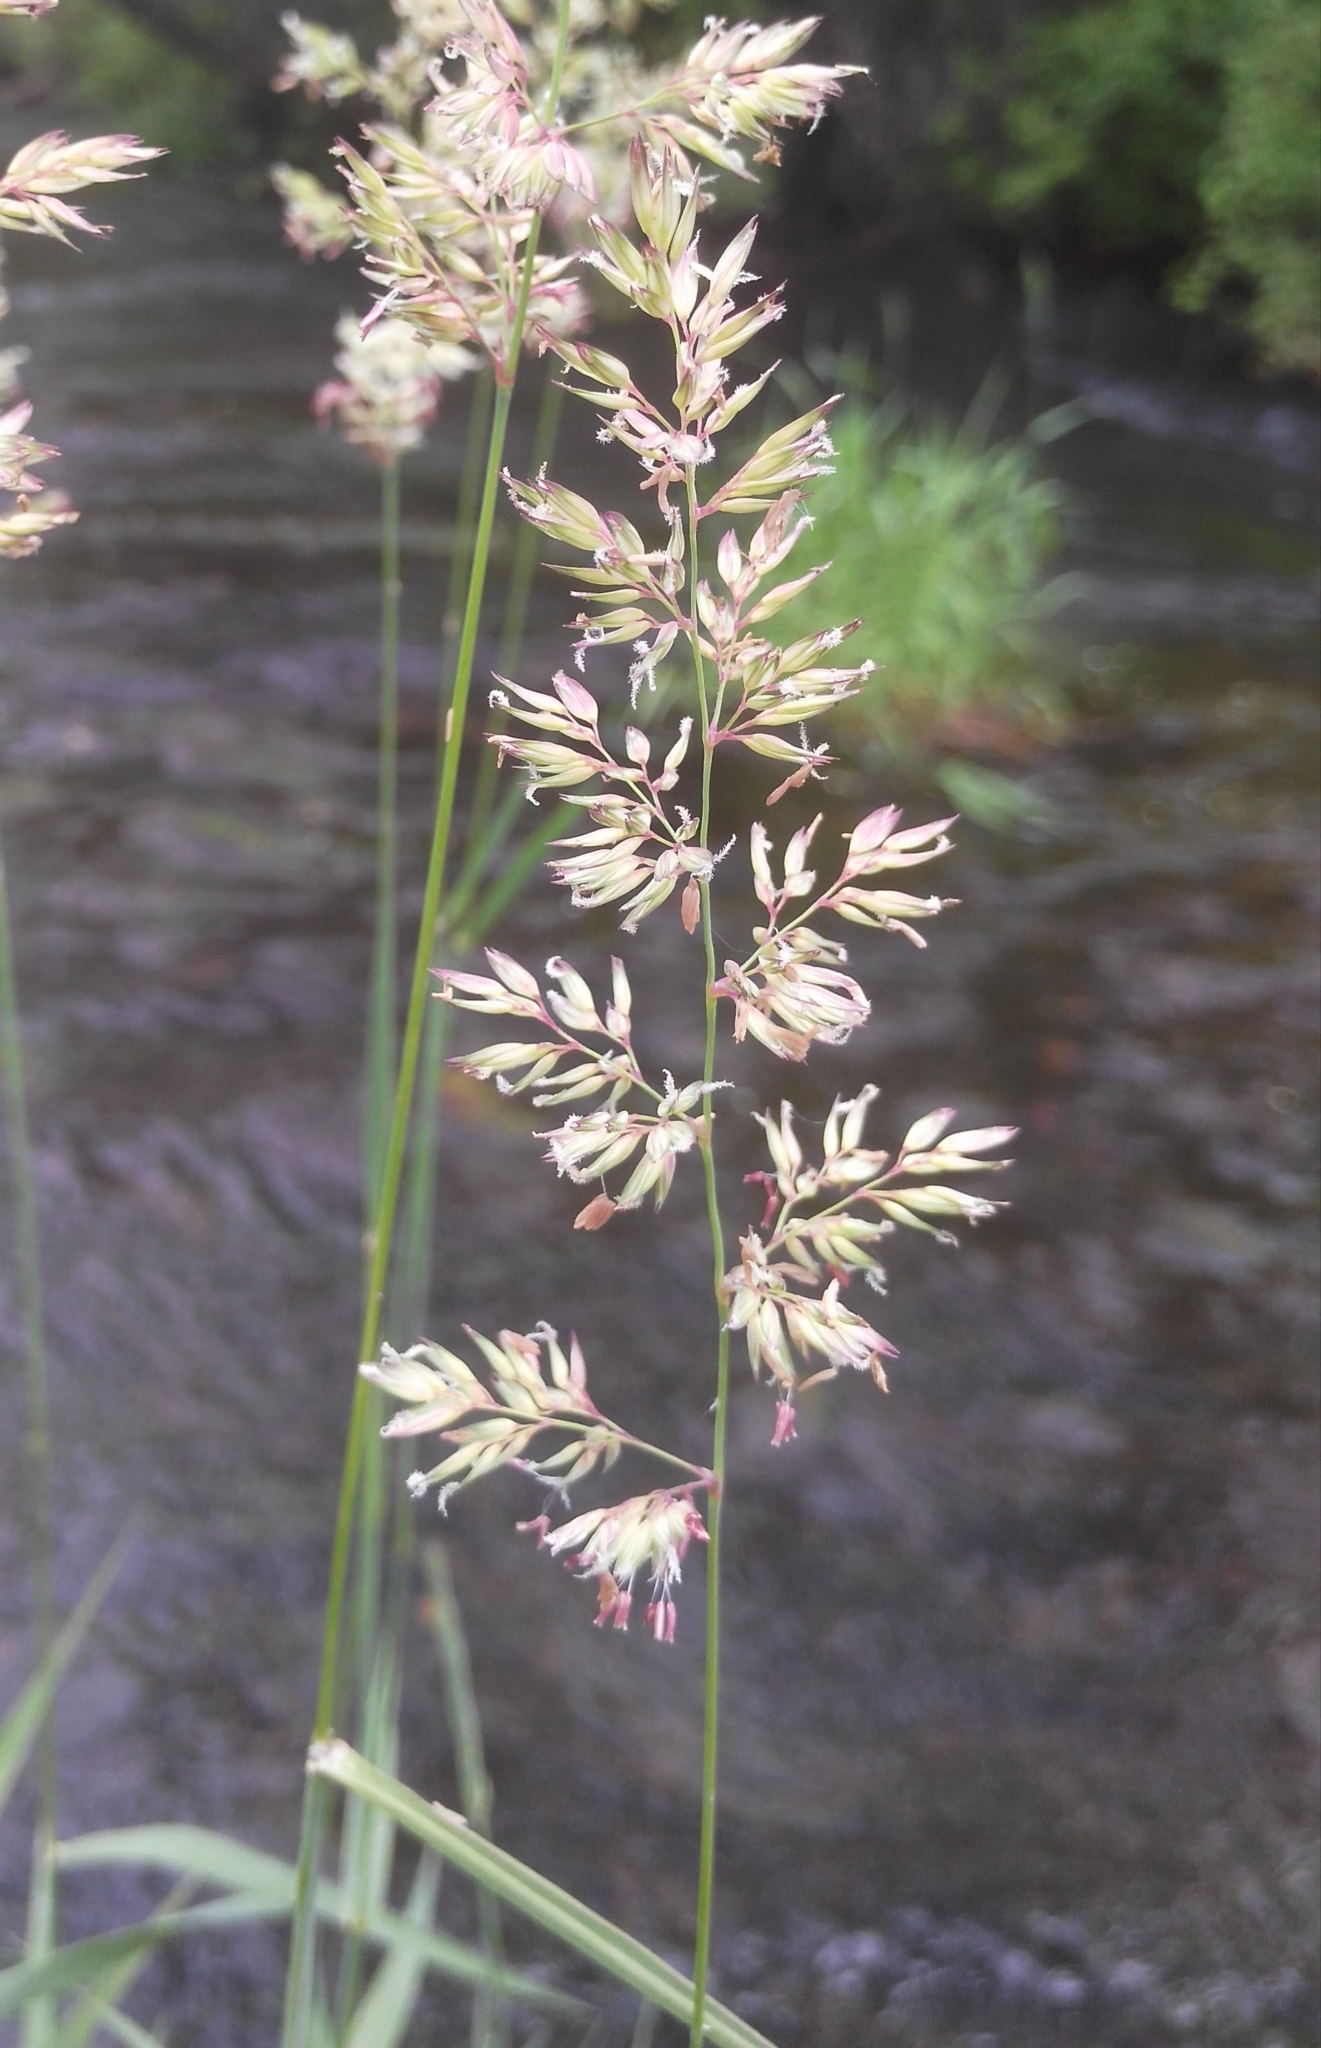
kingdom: Plantae
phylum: Tracheophyta
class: Liliopsida
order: Poales
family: Poaceae
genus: Phalaris
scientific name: Phalaris arundinacea
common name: Reed canary-grass
